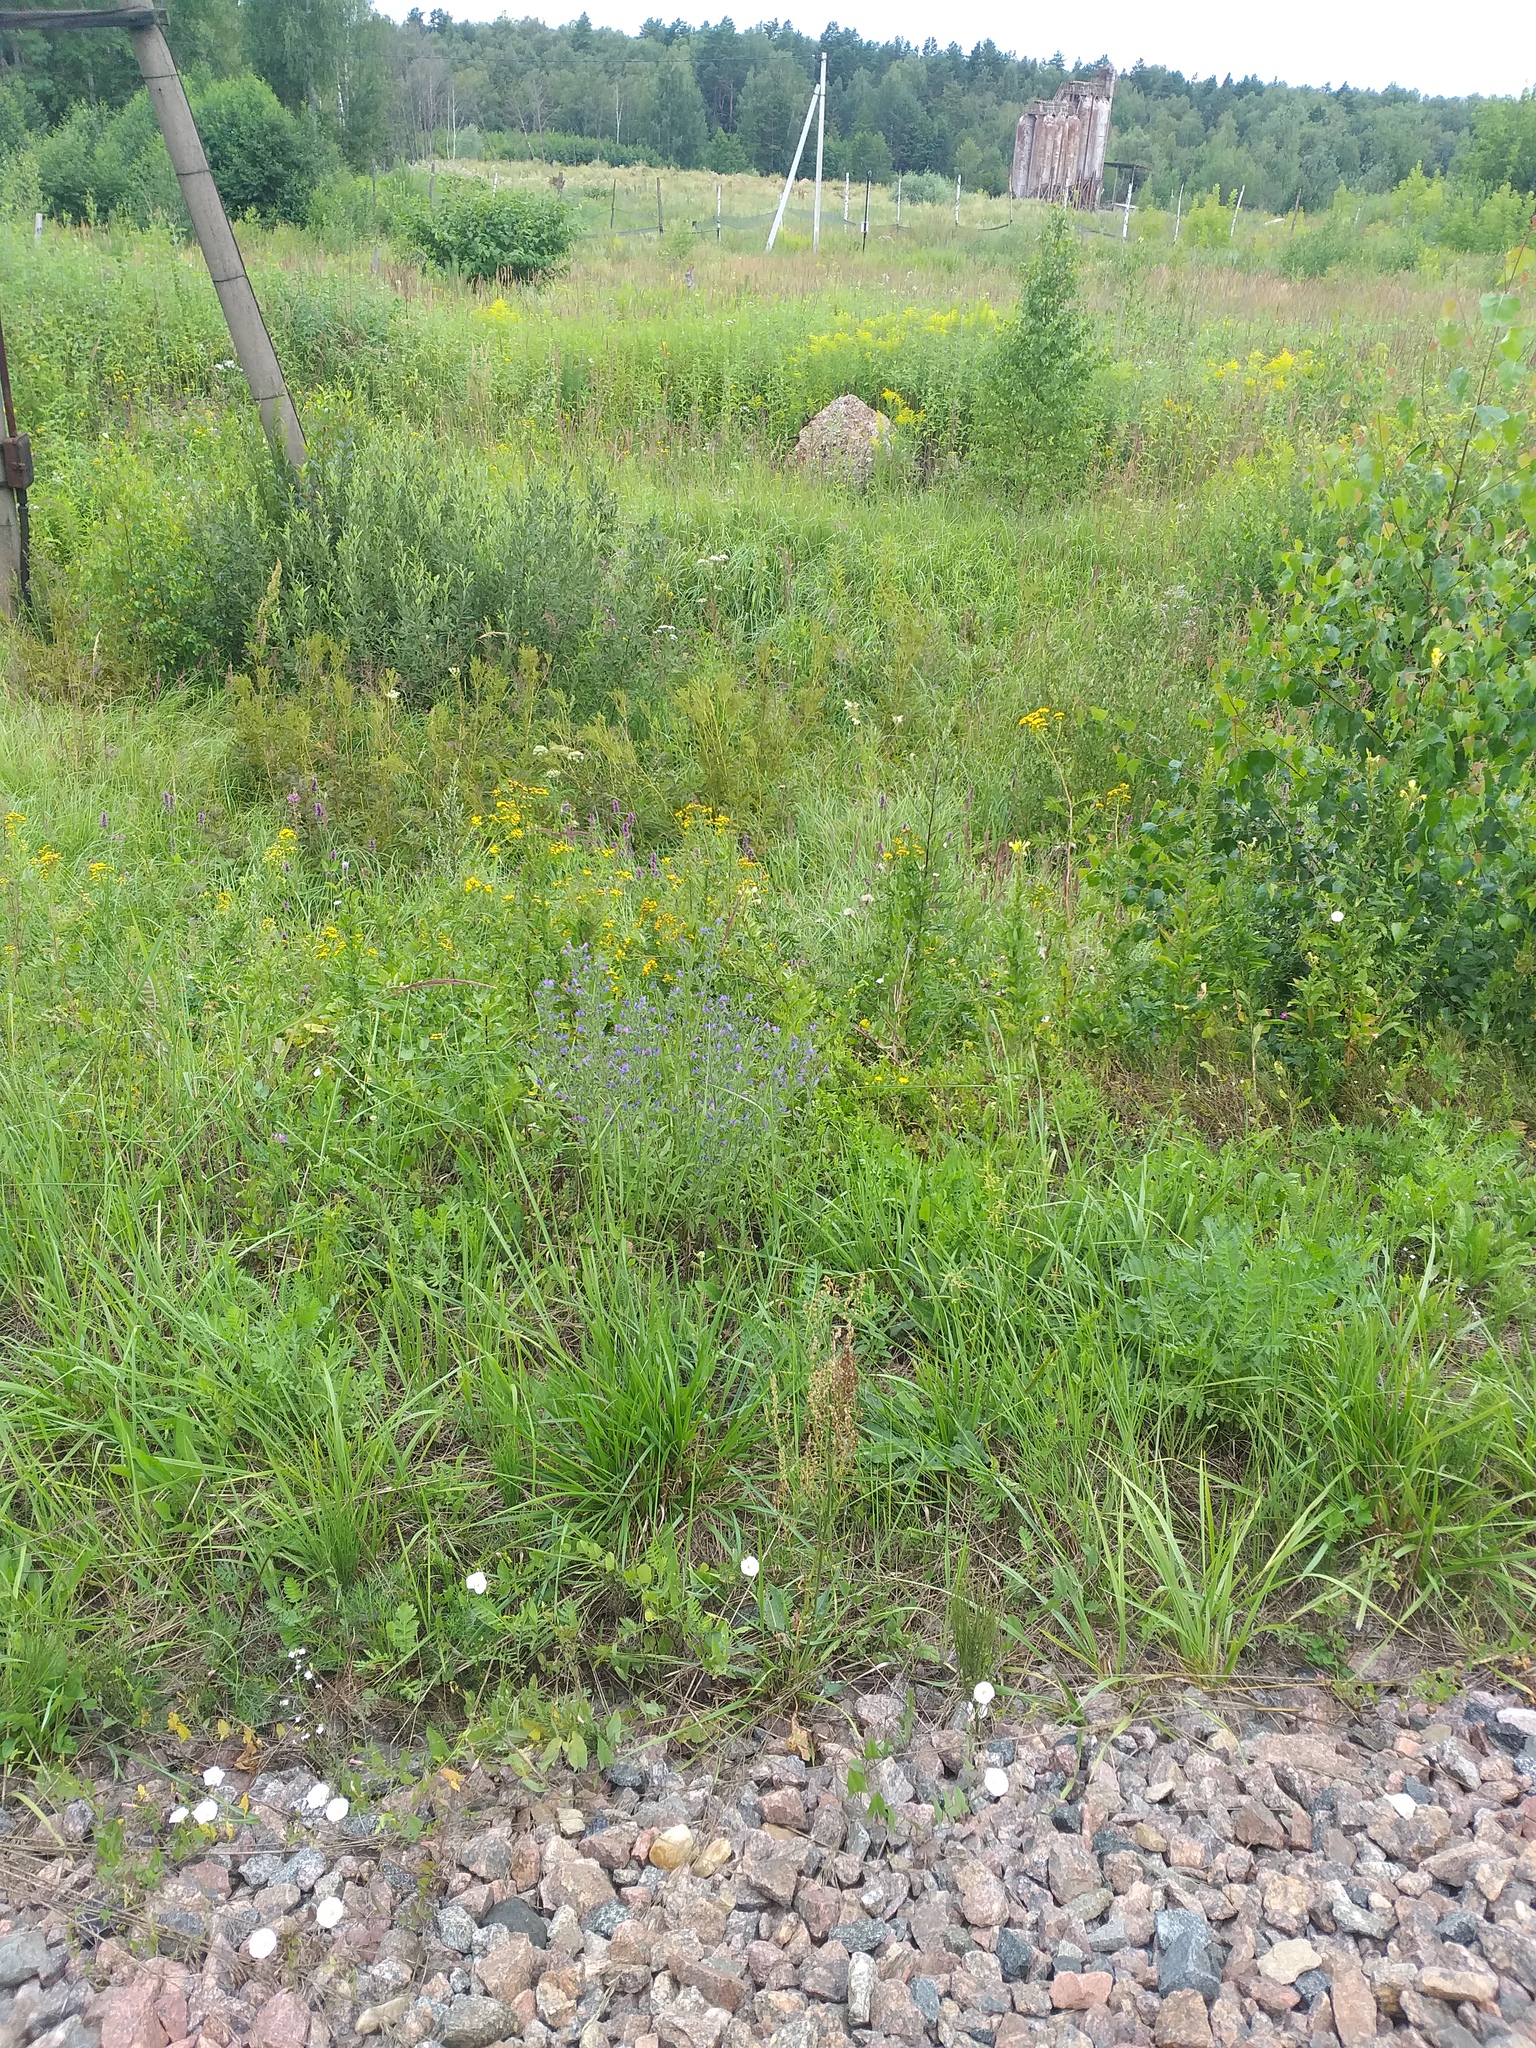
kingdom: Plantae
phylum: Tracheophyta
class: Magnoliopsida
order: Boraginales
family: Boraginaceae
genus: Echium
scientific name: Echium vulgare
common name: Common viper's bugloss
